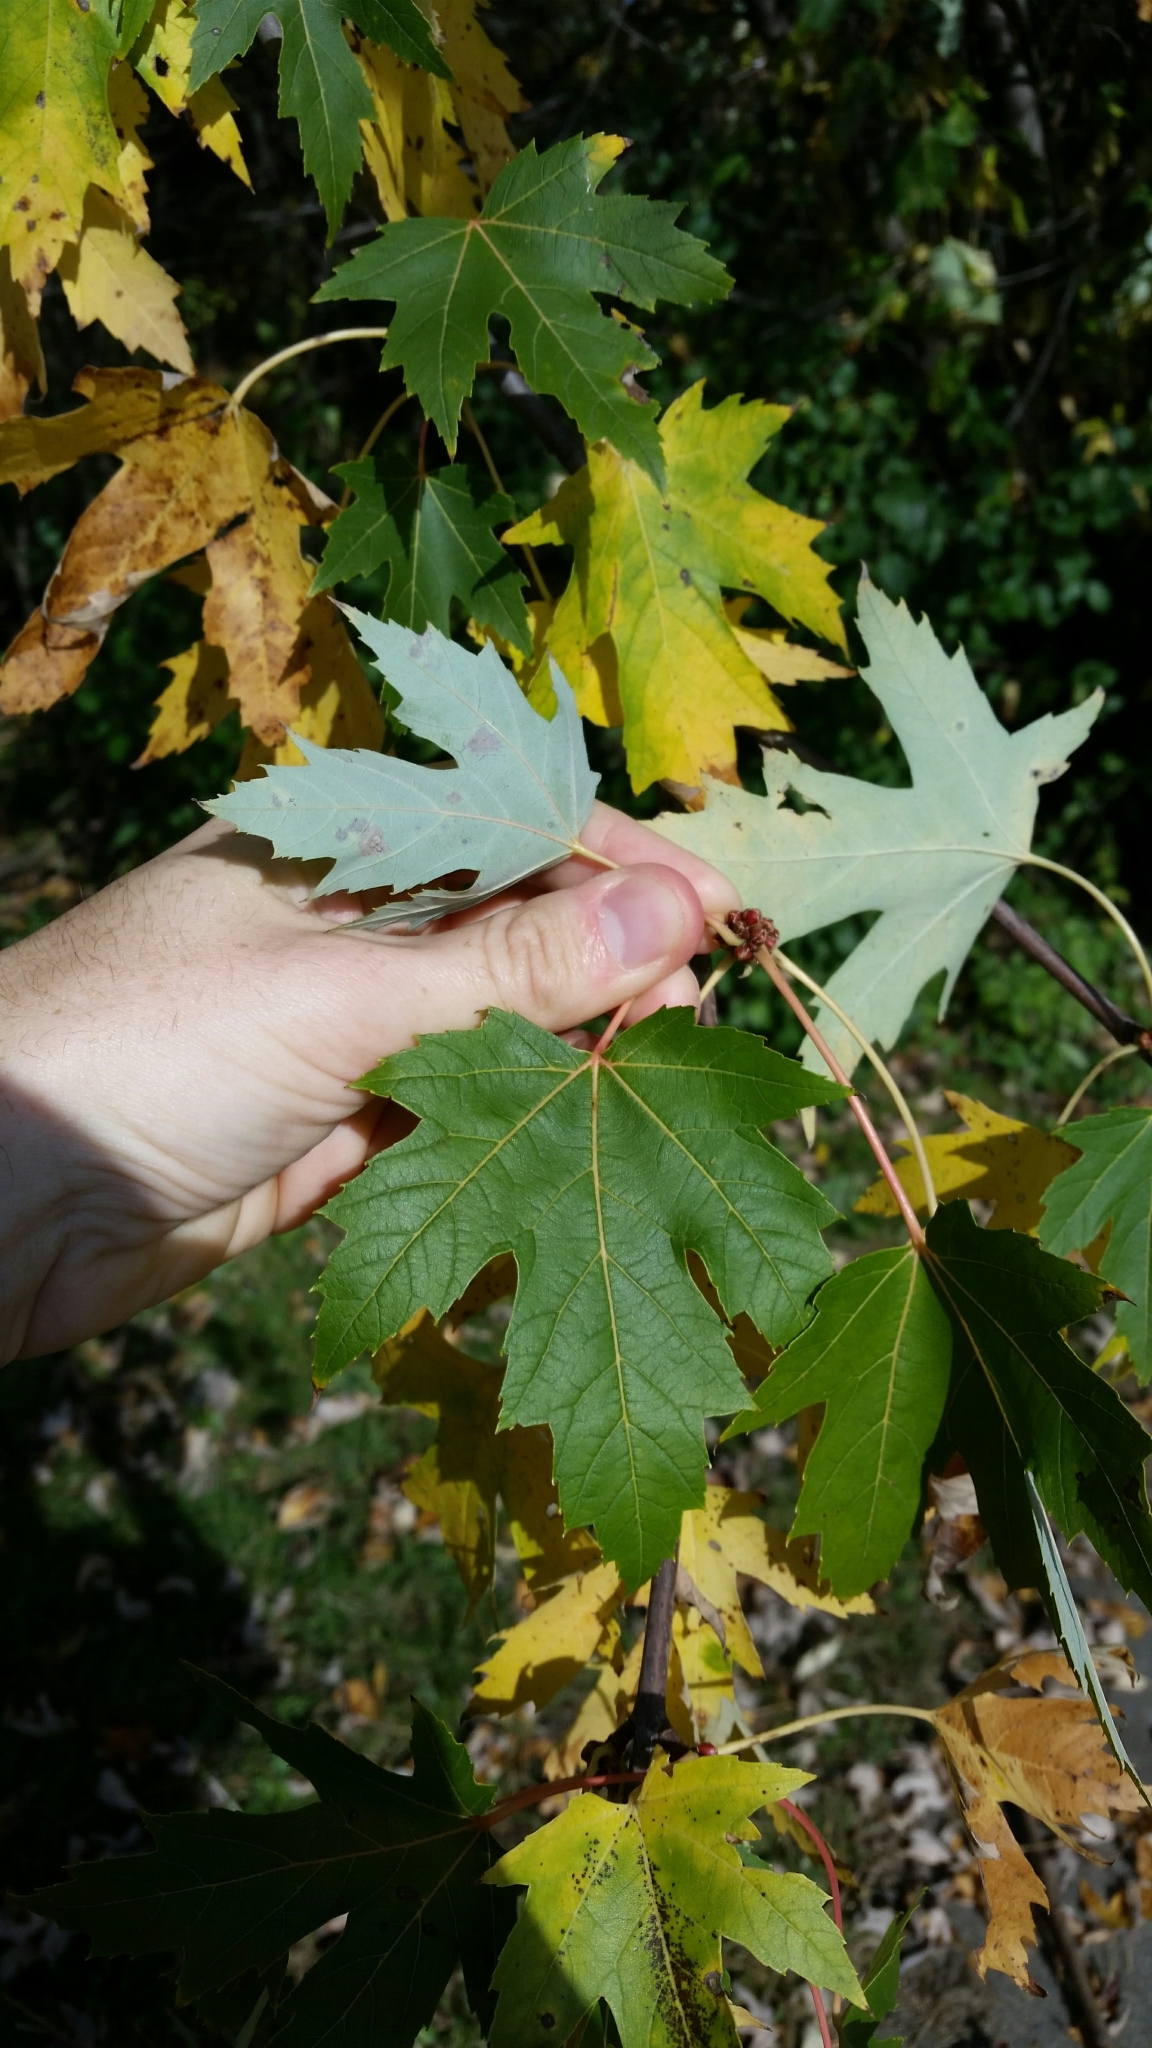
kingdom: Plantae
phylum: Tracheophyta
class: Magnoliopsida
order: Sapindales
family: Sapindaceae
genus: Acer
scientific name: Acer saccharinum
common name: Silver maple
